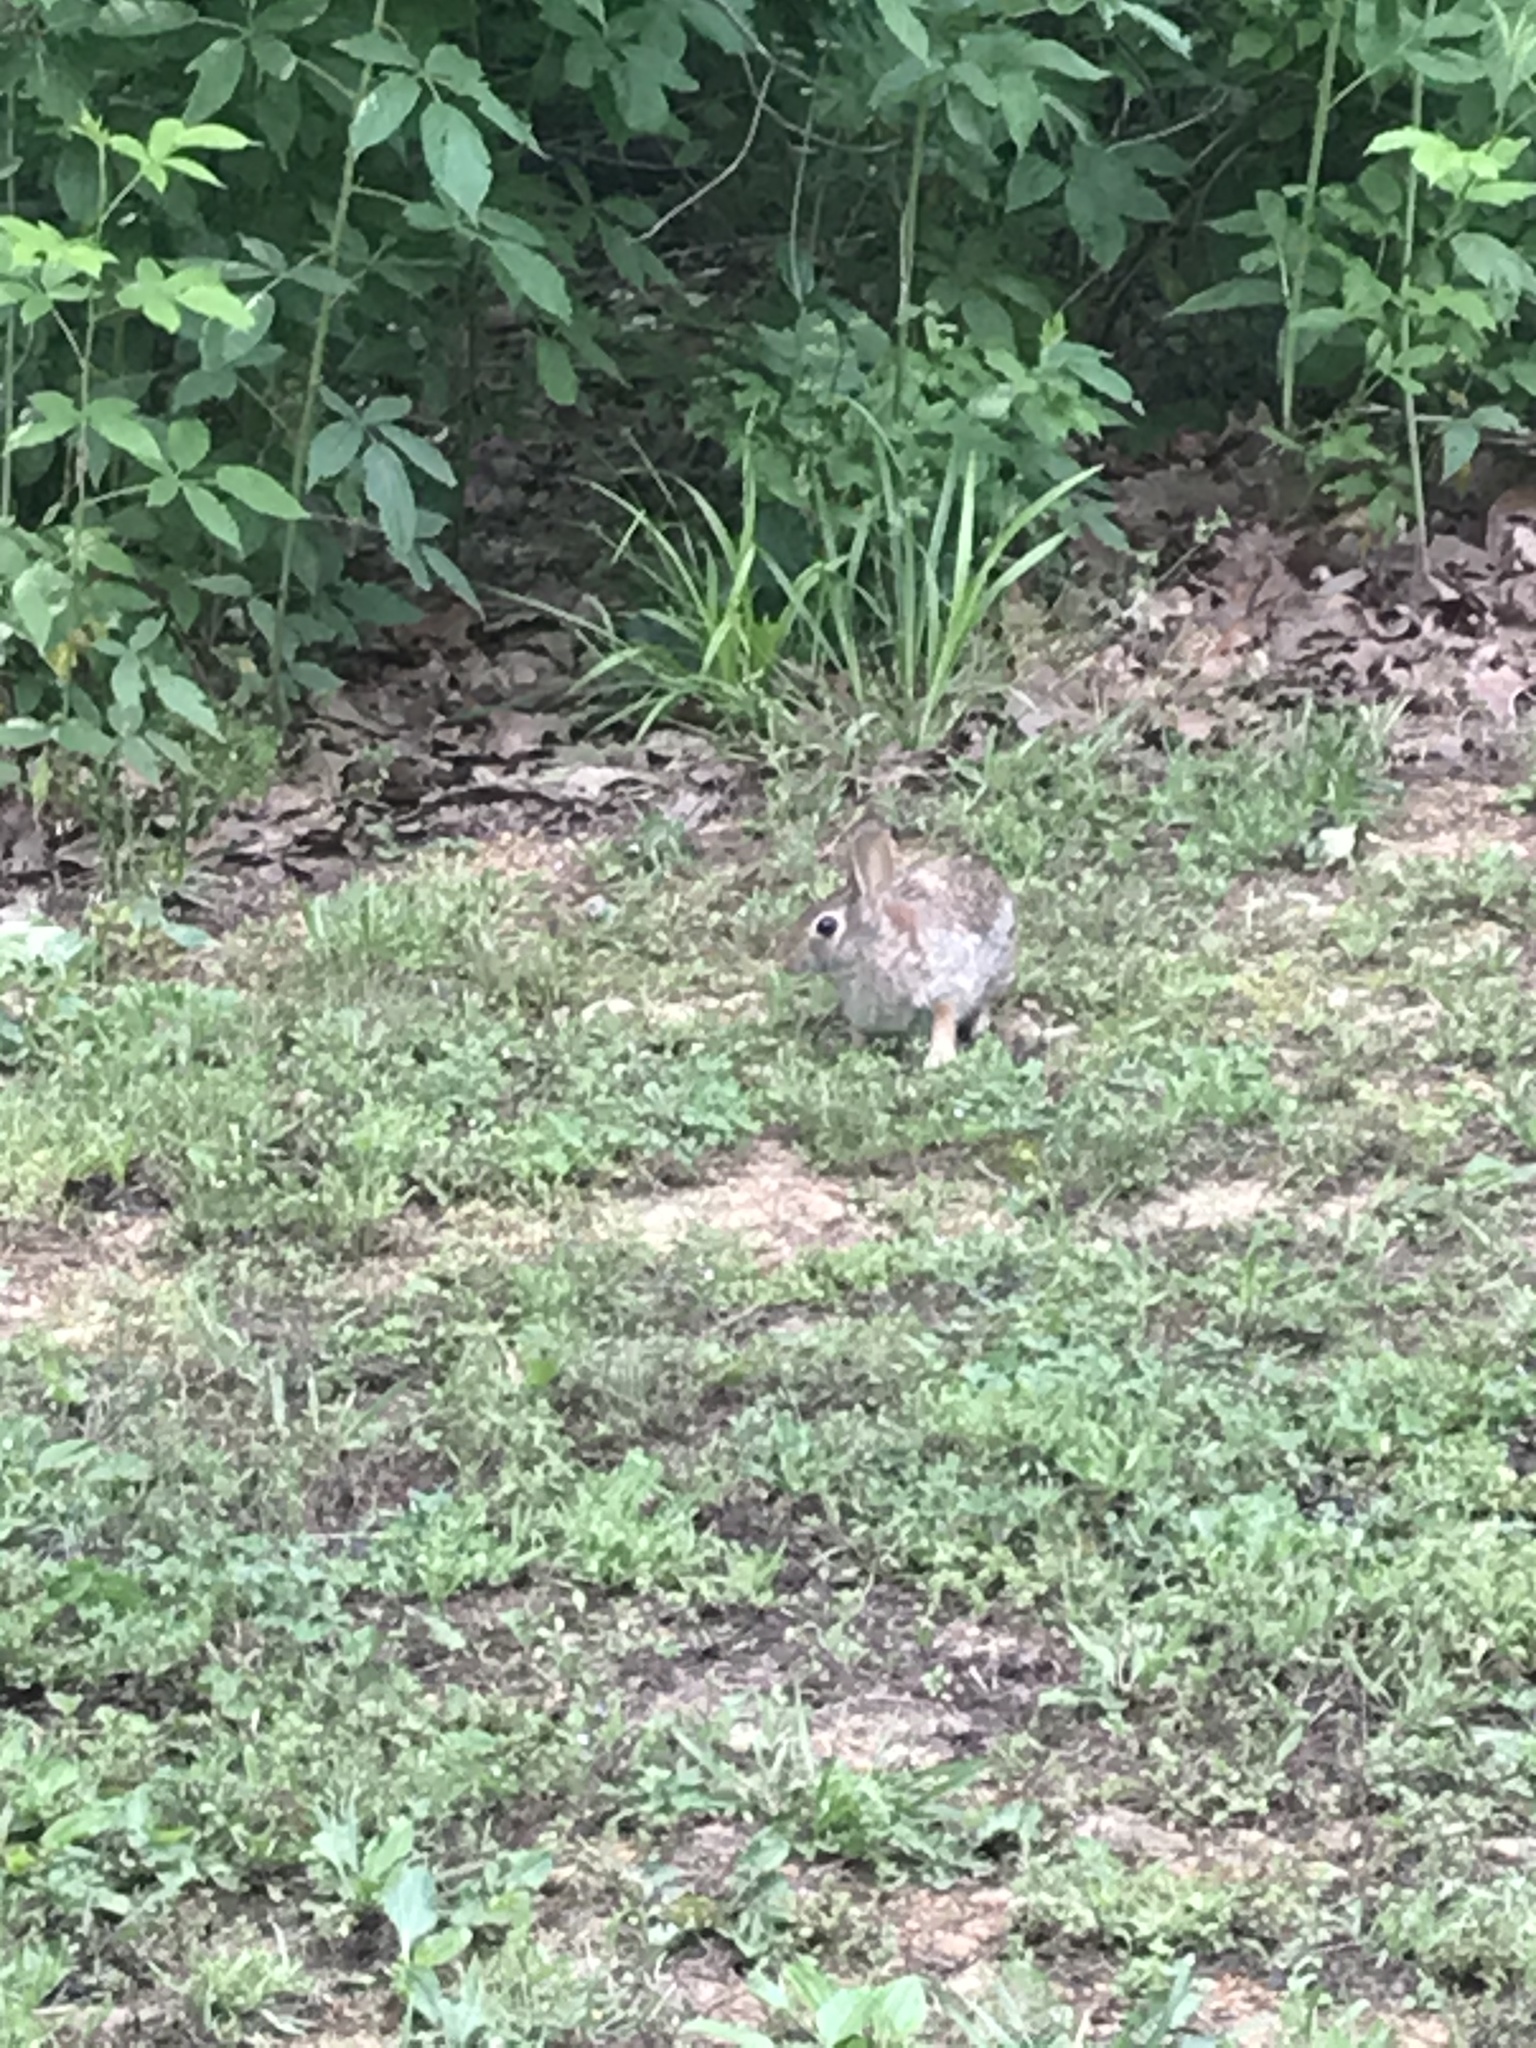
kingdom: Animalia
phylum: Chordata
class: Mammalia
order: Lagomorpha
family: Leporidae
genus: Sylvilagus
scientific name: Sylvilagus floridanus
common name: Eastern cottontail
